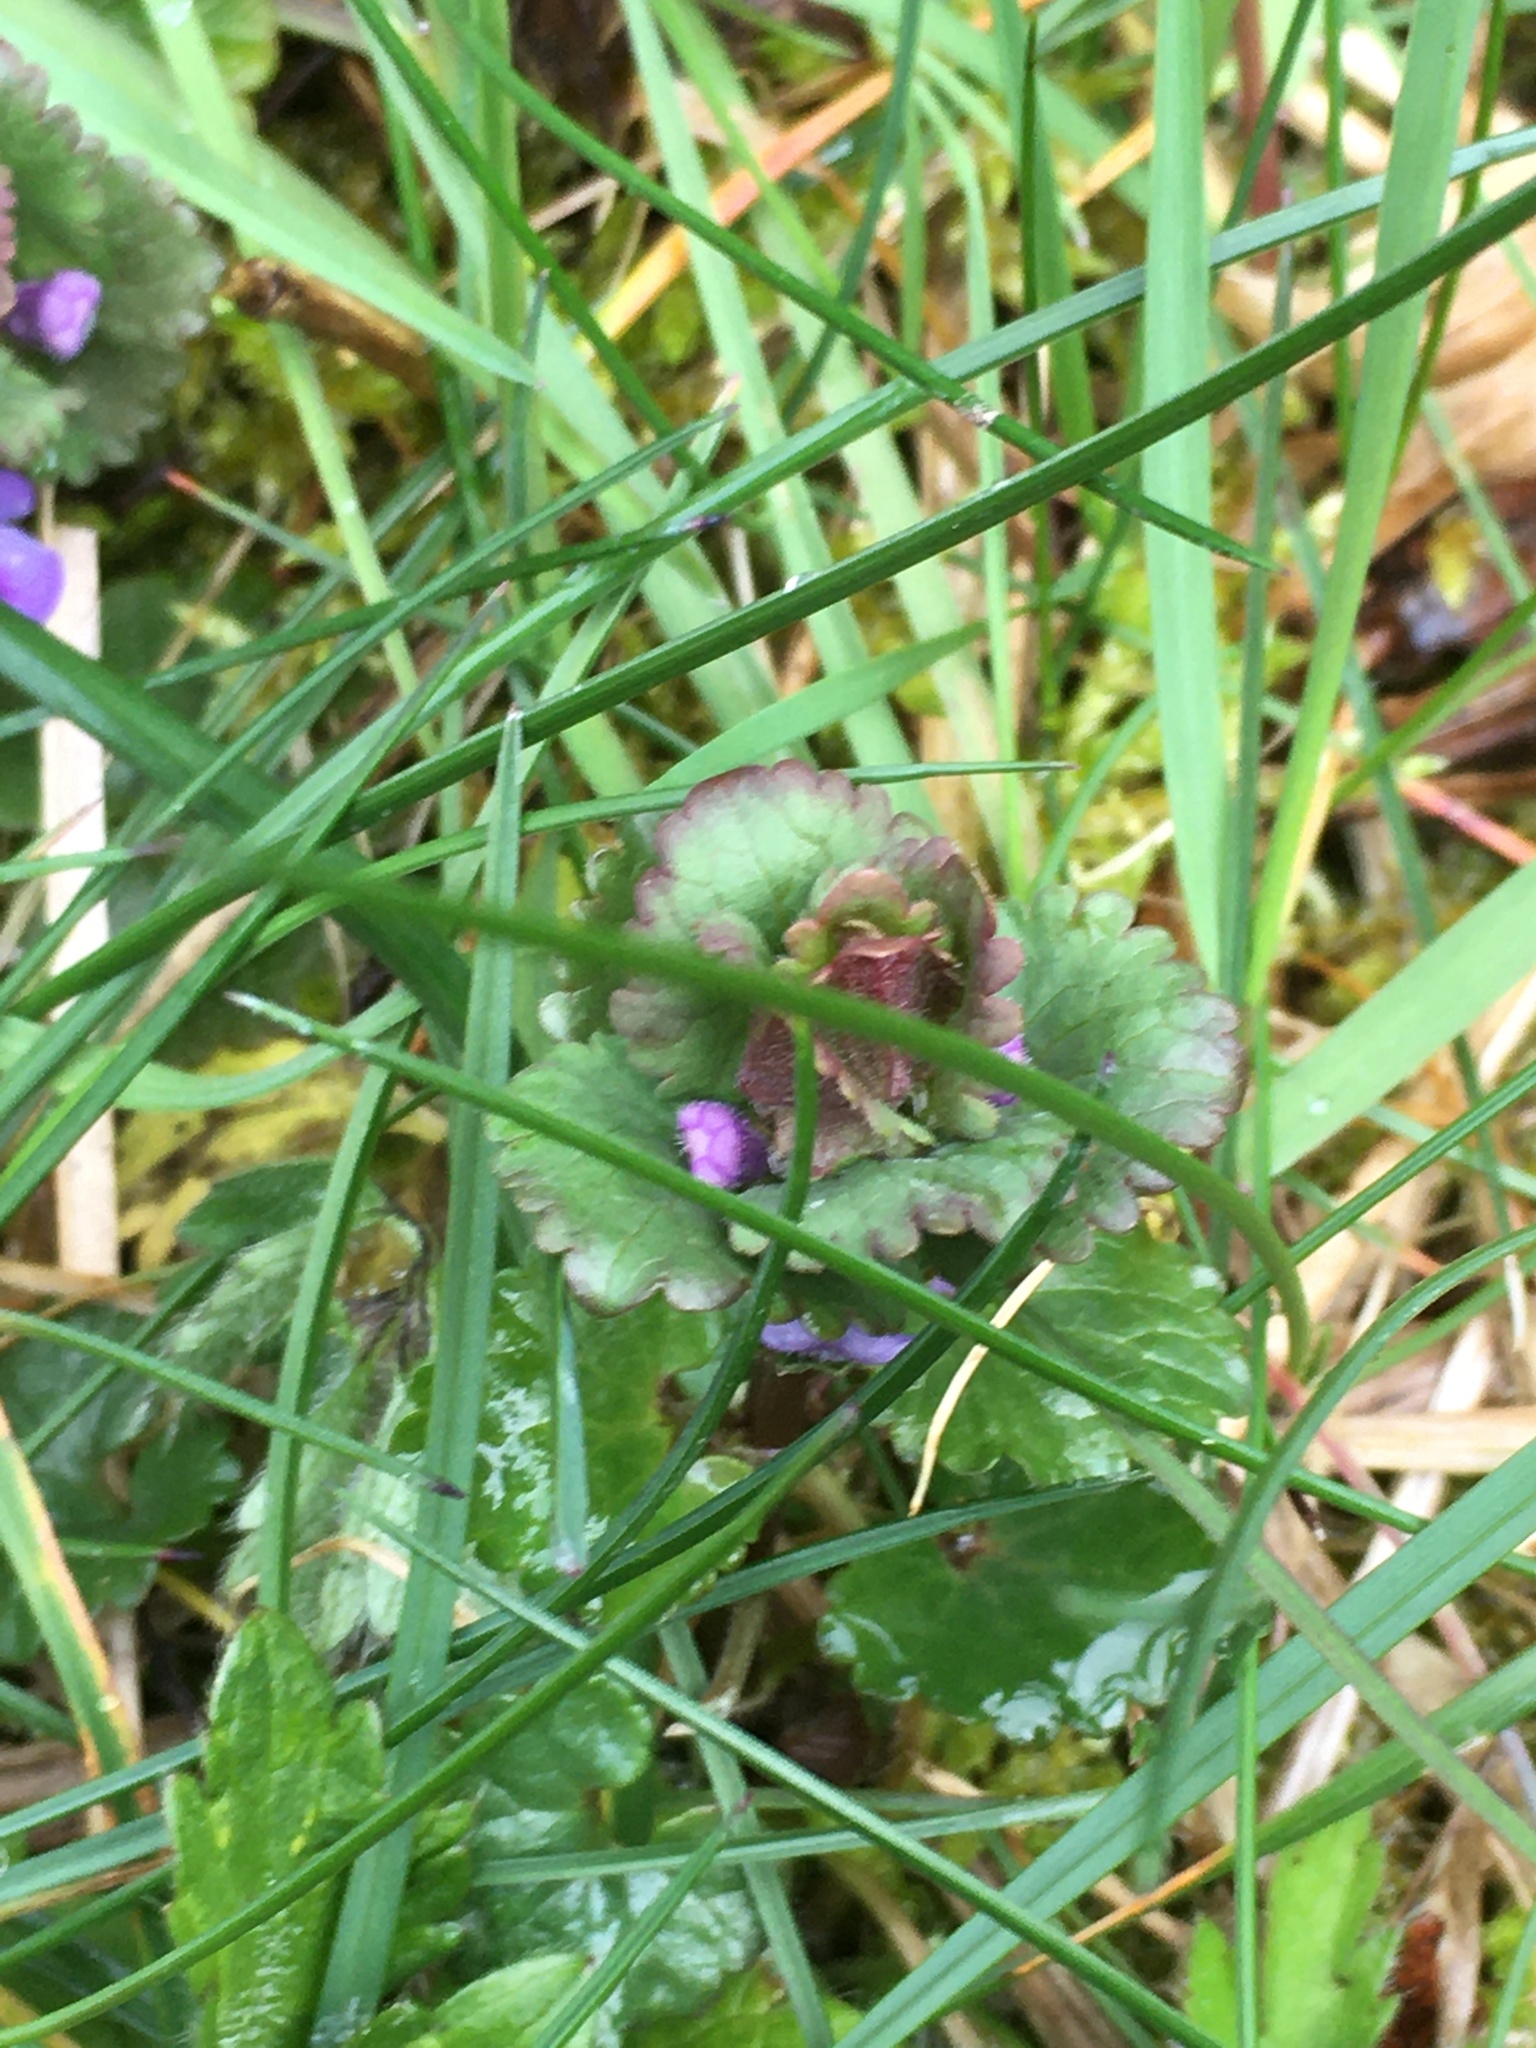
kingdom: Plantae
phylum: Tracheophyta
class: Magnoliopsida
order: Lamiales
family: Lamiaceae
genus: Glechoma
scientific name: Glechoma hederacea
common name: Ground ivy
